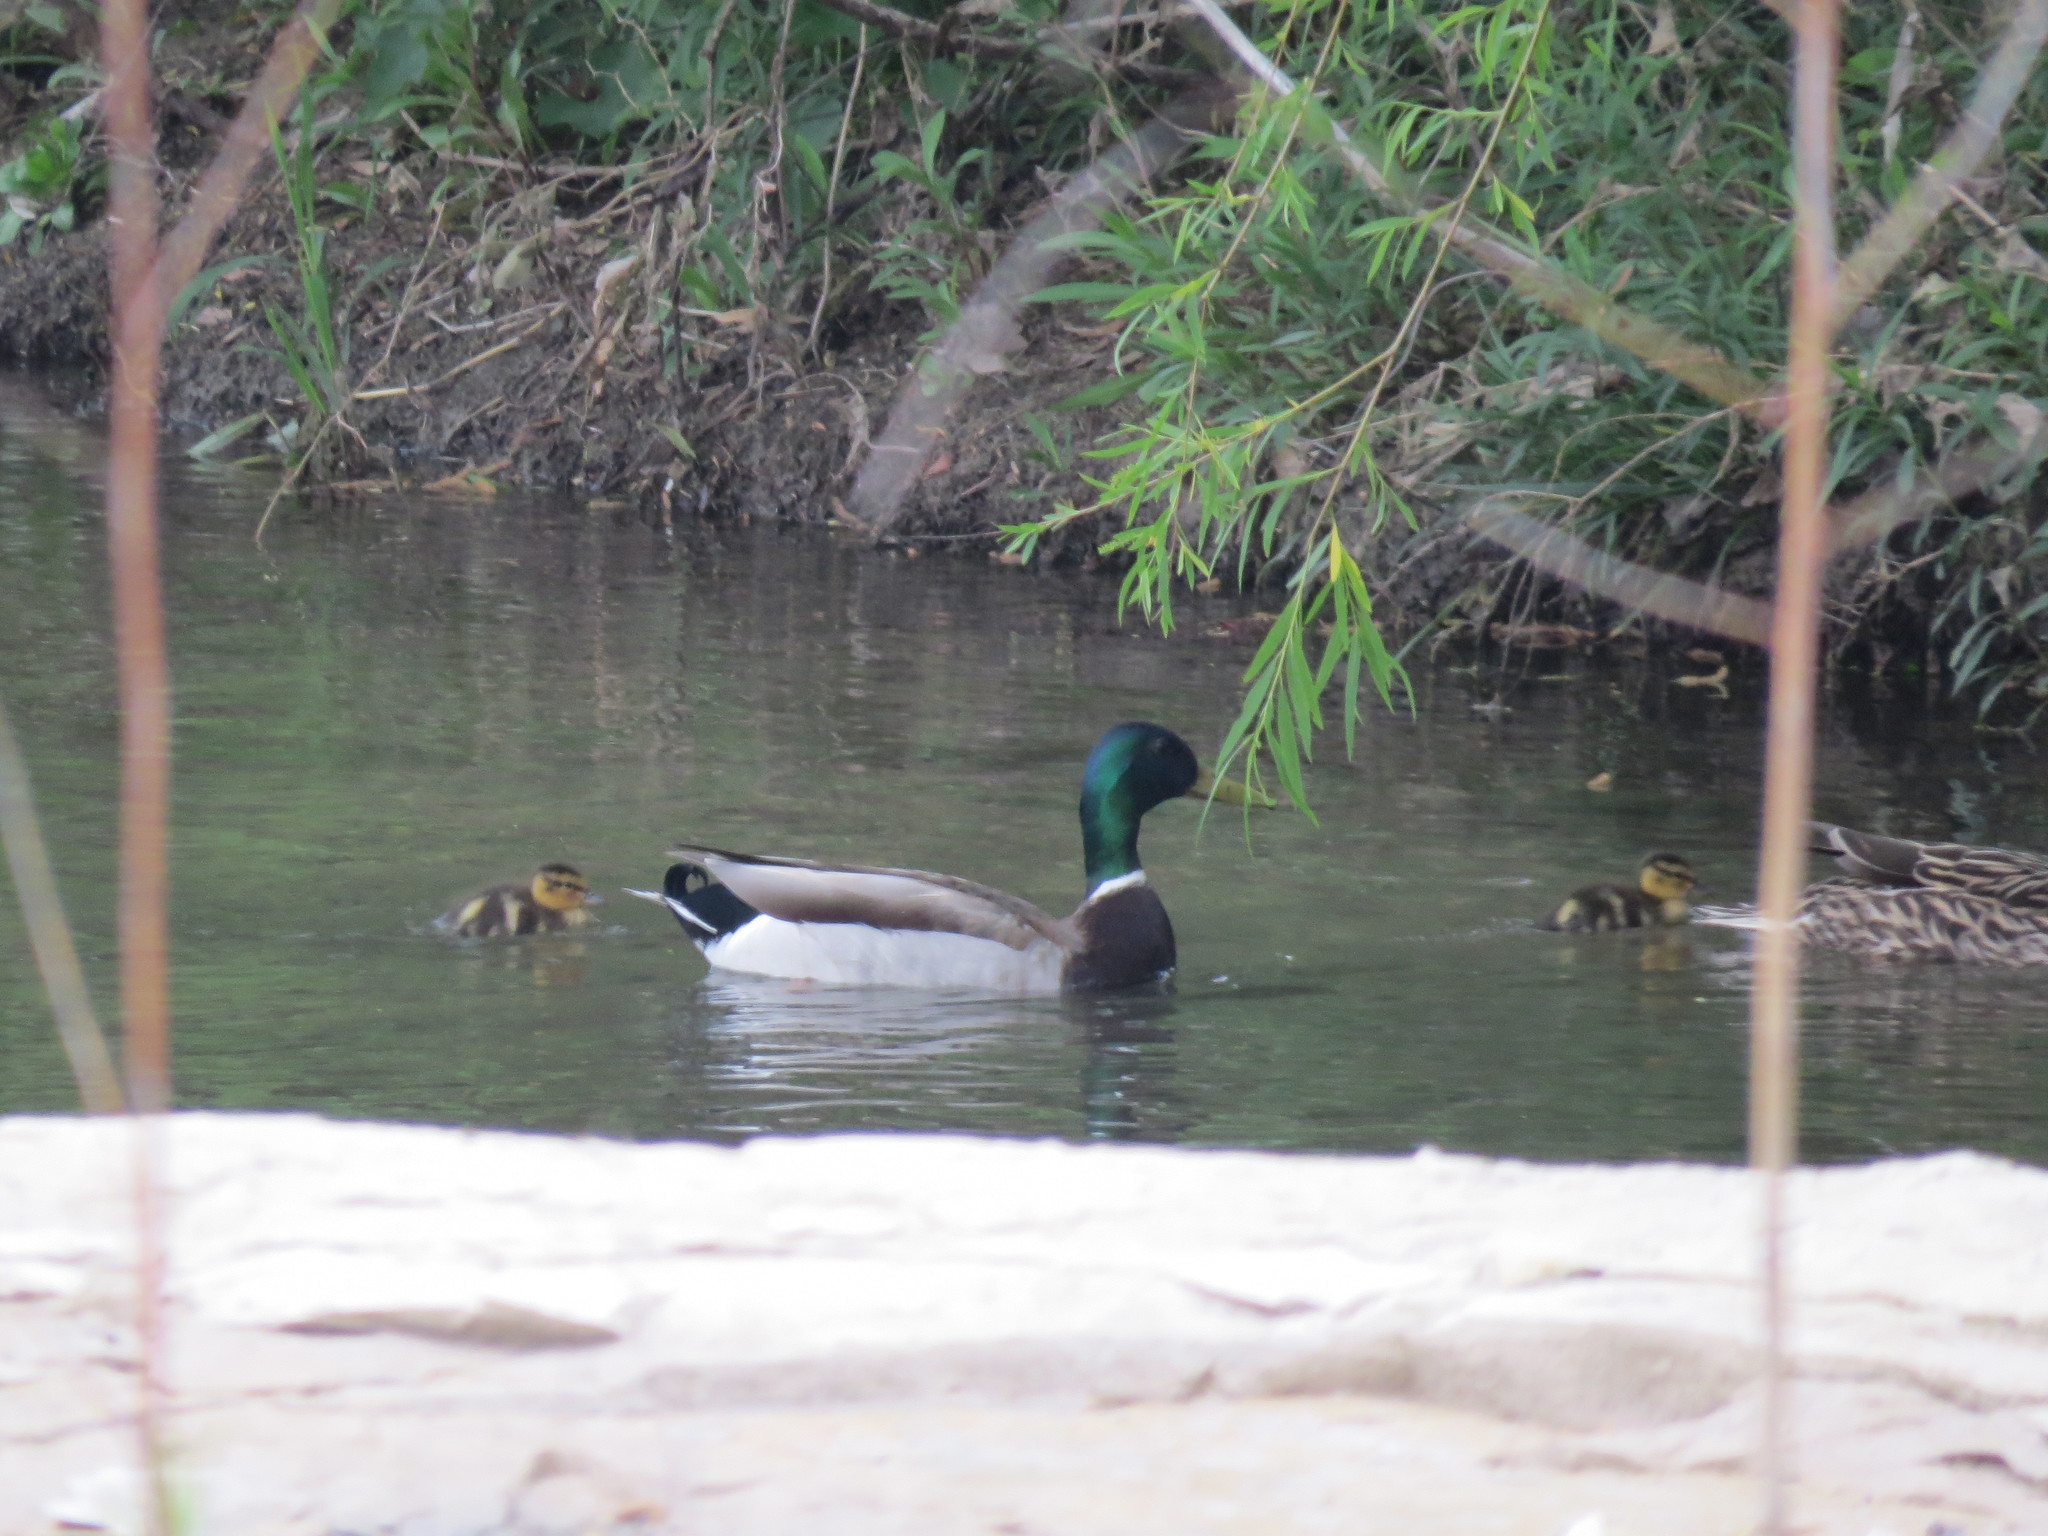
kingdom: Animalia
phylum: Chordata
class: Aves
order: Anseriformes
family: Anatidae
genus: Anas
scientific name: Anas platyrhynchos
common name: Mallard
